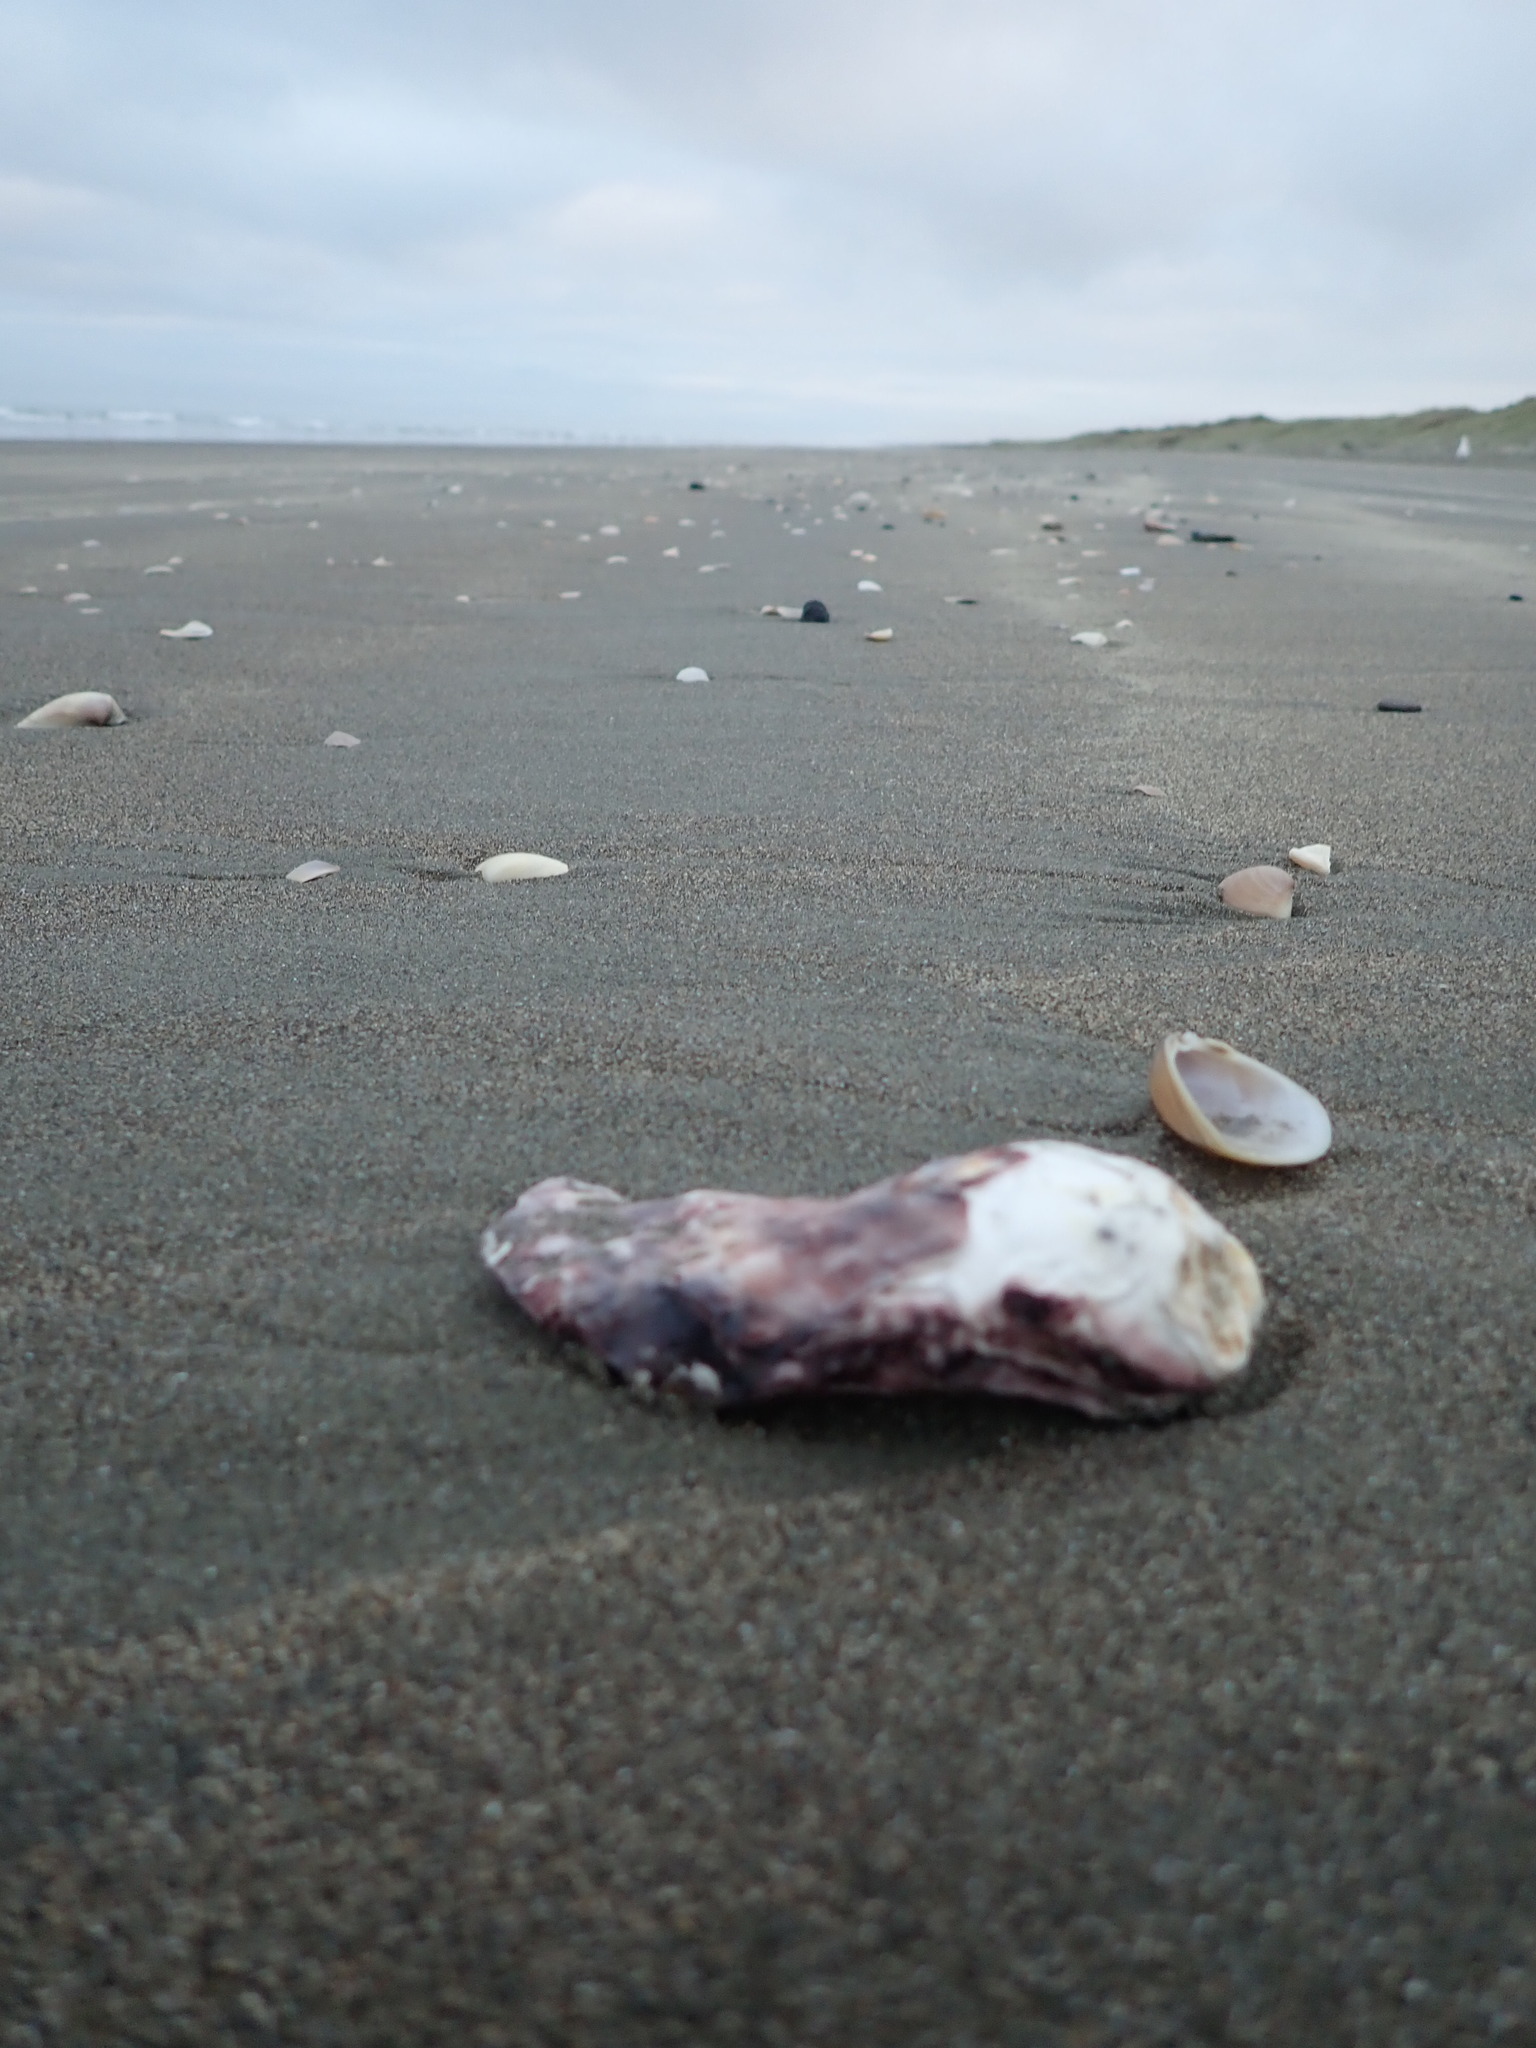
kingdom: Animalia
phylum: Mollusca
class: Bivalvia
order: Ostreida
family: Ostreidae
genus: Magallana
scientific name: Magallana gigas
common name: Pacific oyster
